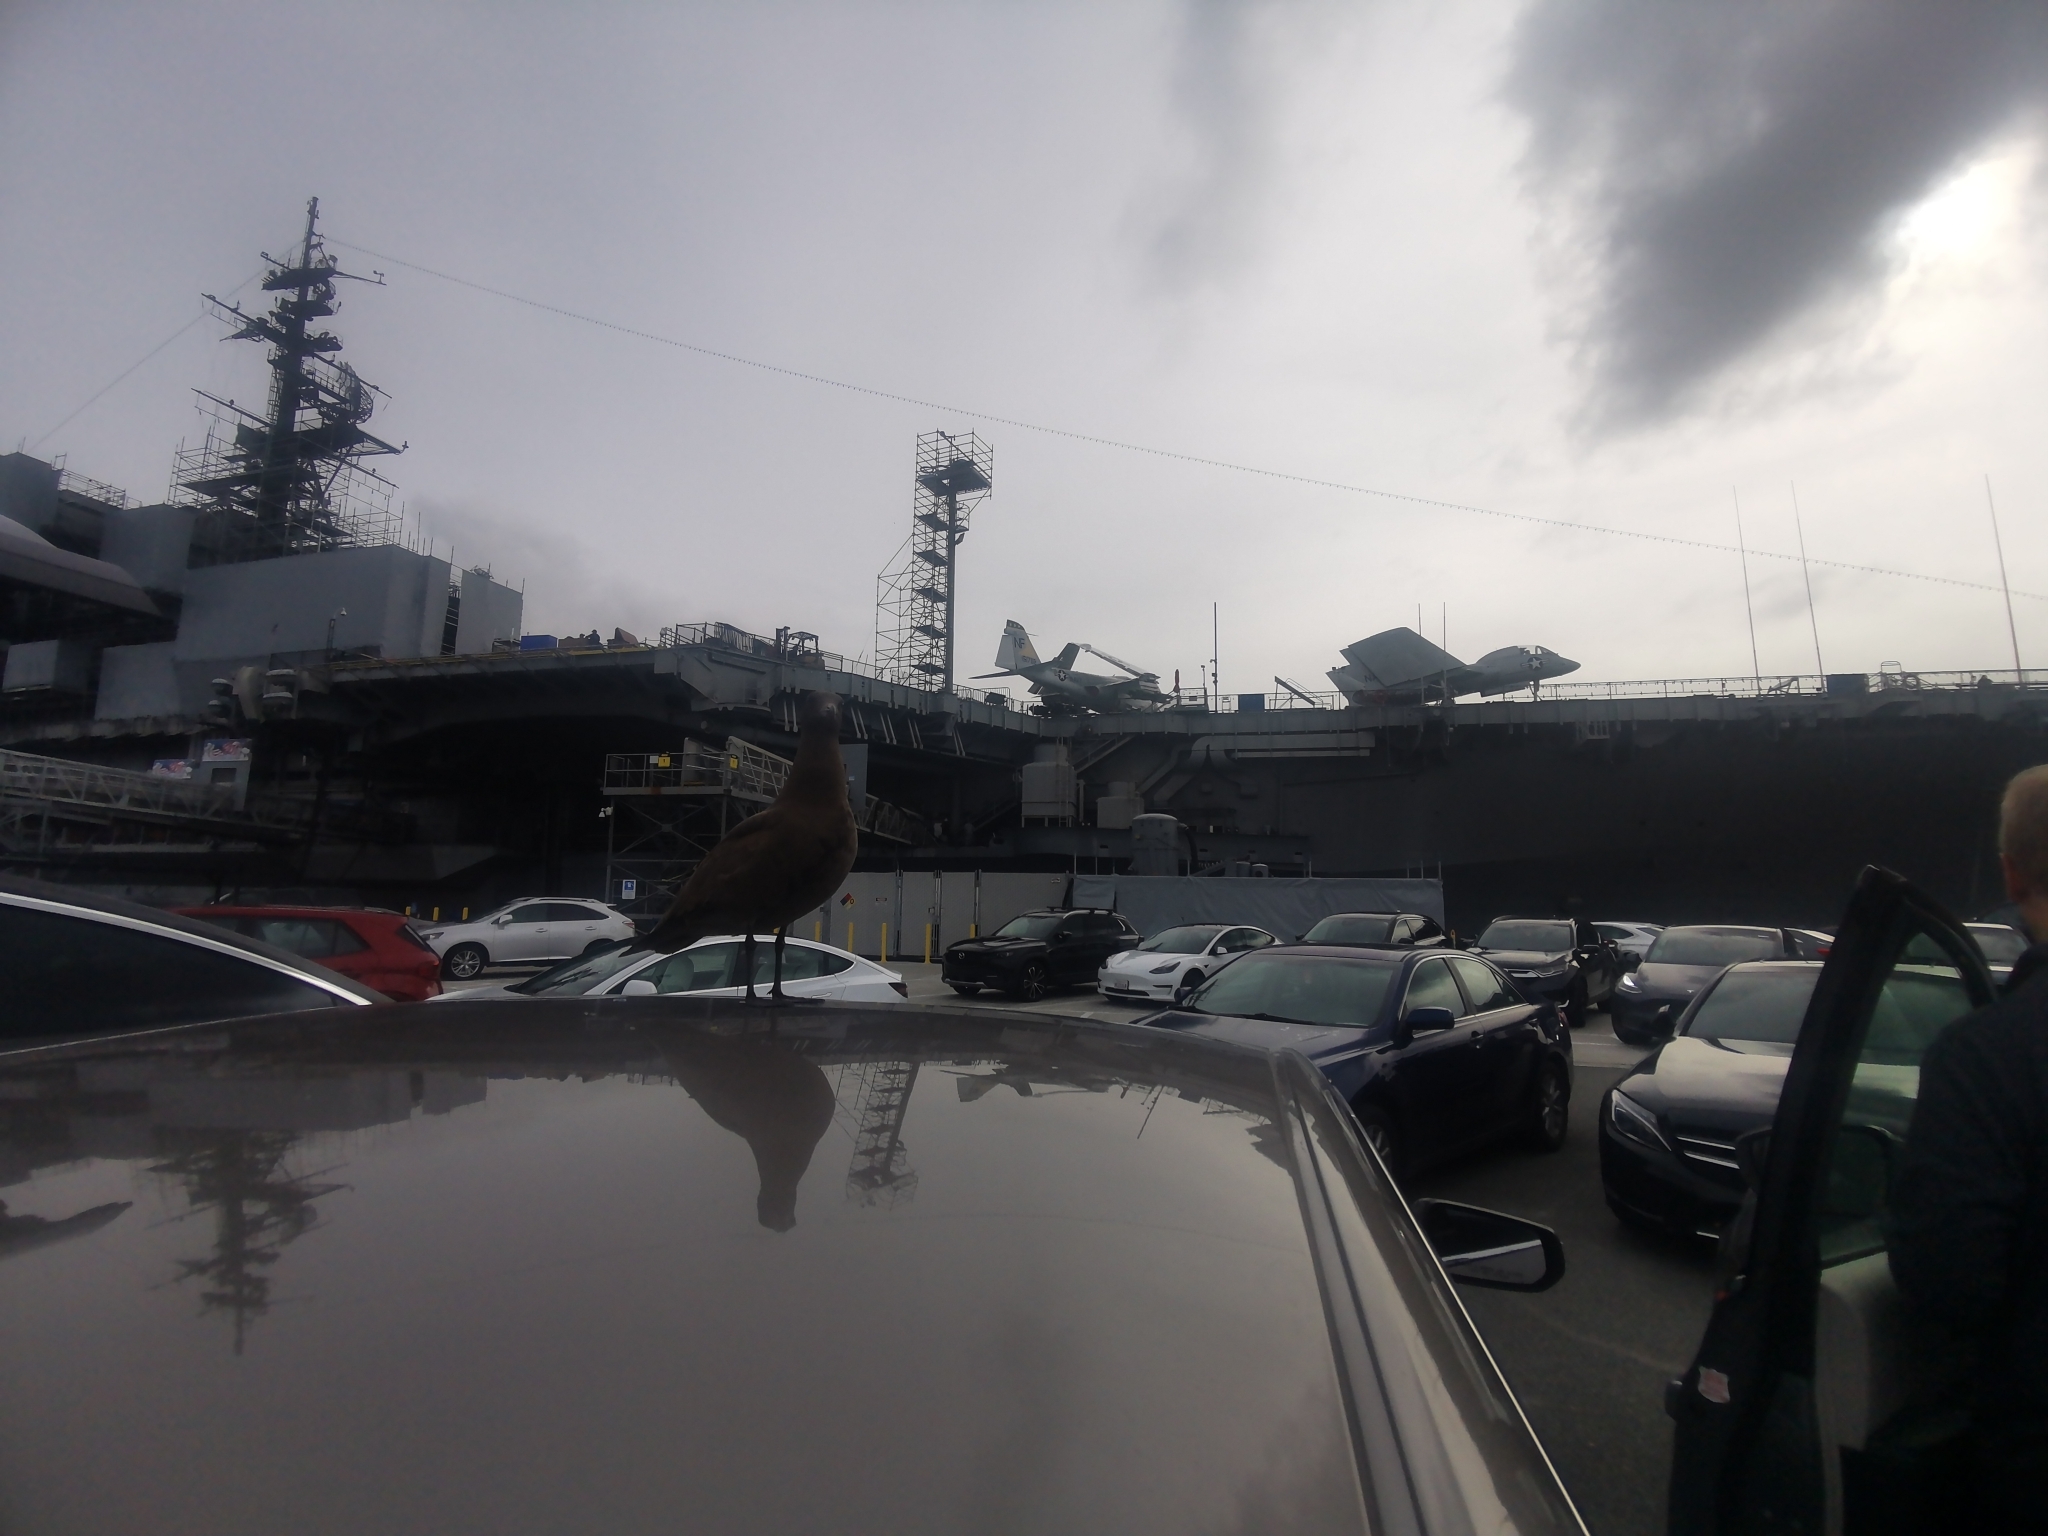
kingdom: Animalia
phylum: Chordata
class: Aves
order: Charadriiformes
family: Laridae
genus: Larus
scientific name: Larus heermanni
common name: Heermann's gull
